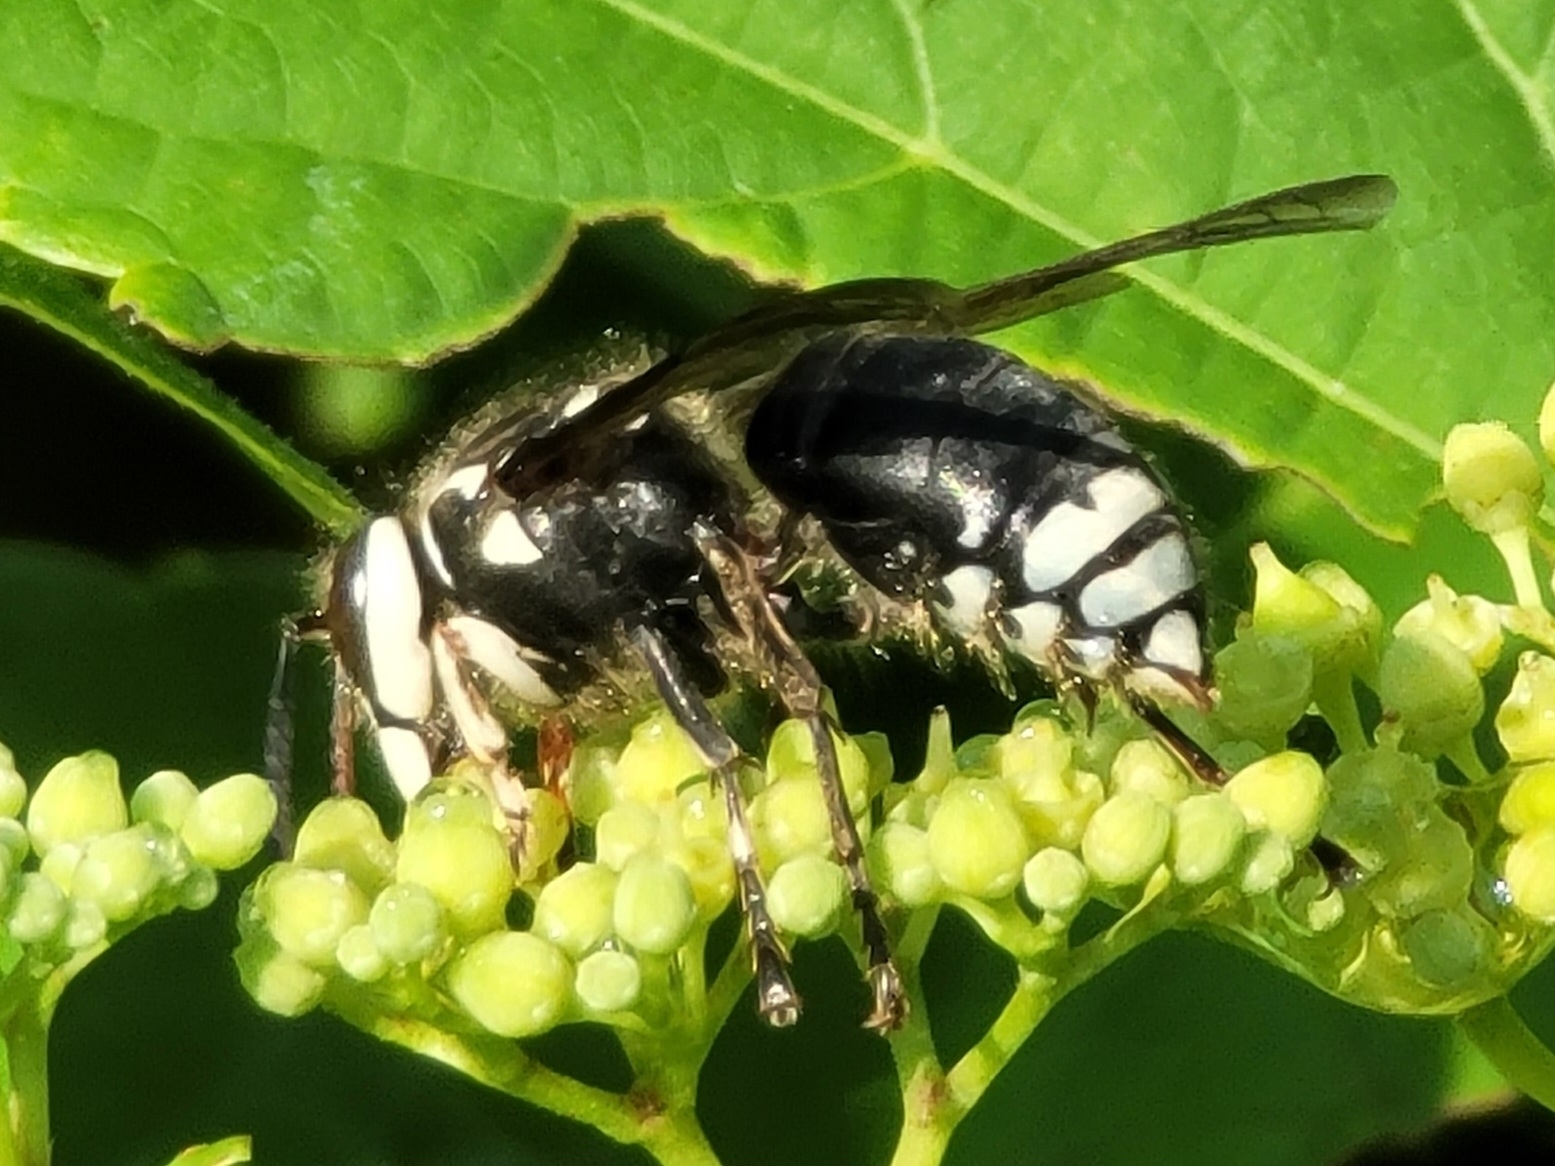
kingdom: Animalia
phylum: Arthropoda
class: Insecta
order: Hymenoptera
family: Vespidae
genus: Dolichovespula
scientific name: Dolichovespula maculata
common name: Bald-faced hornet
